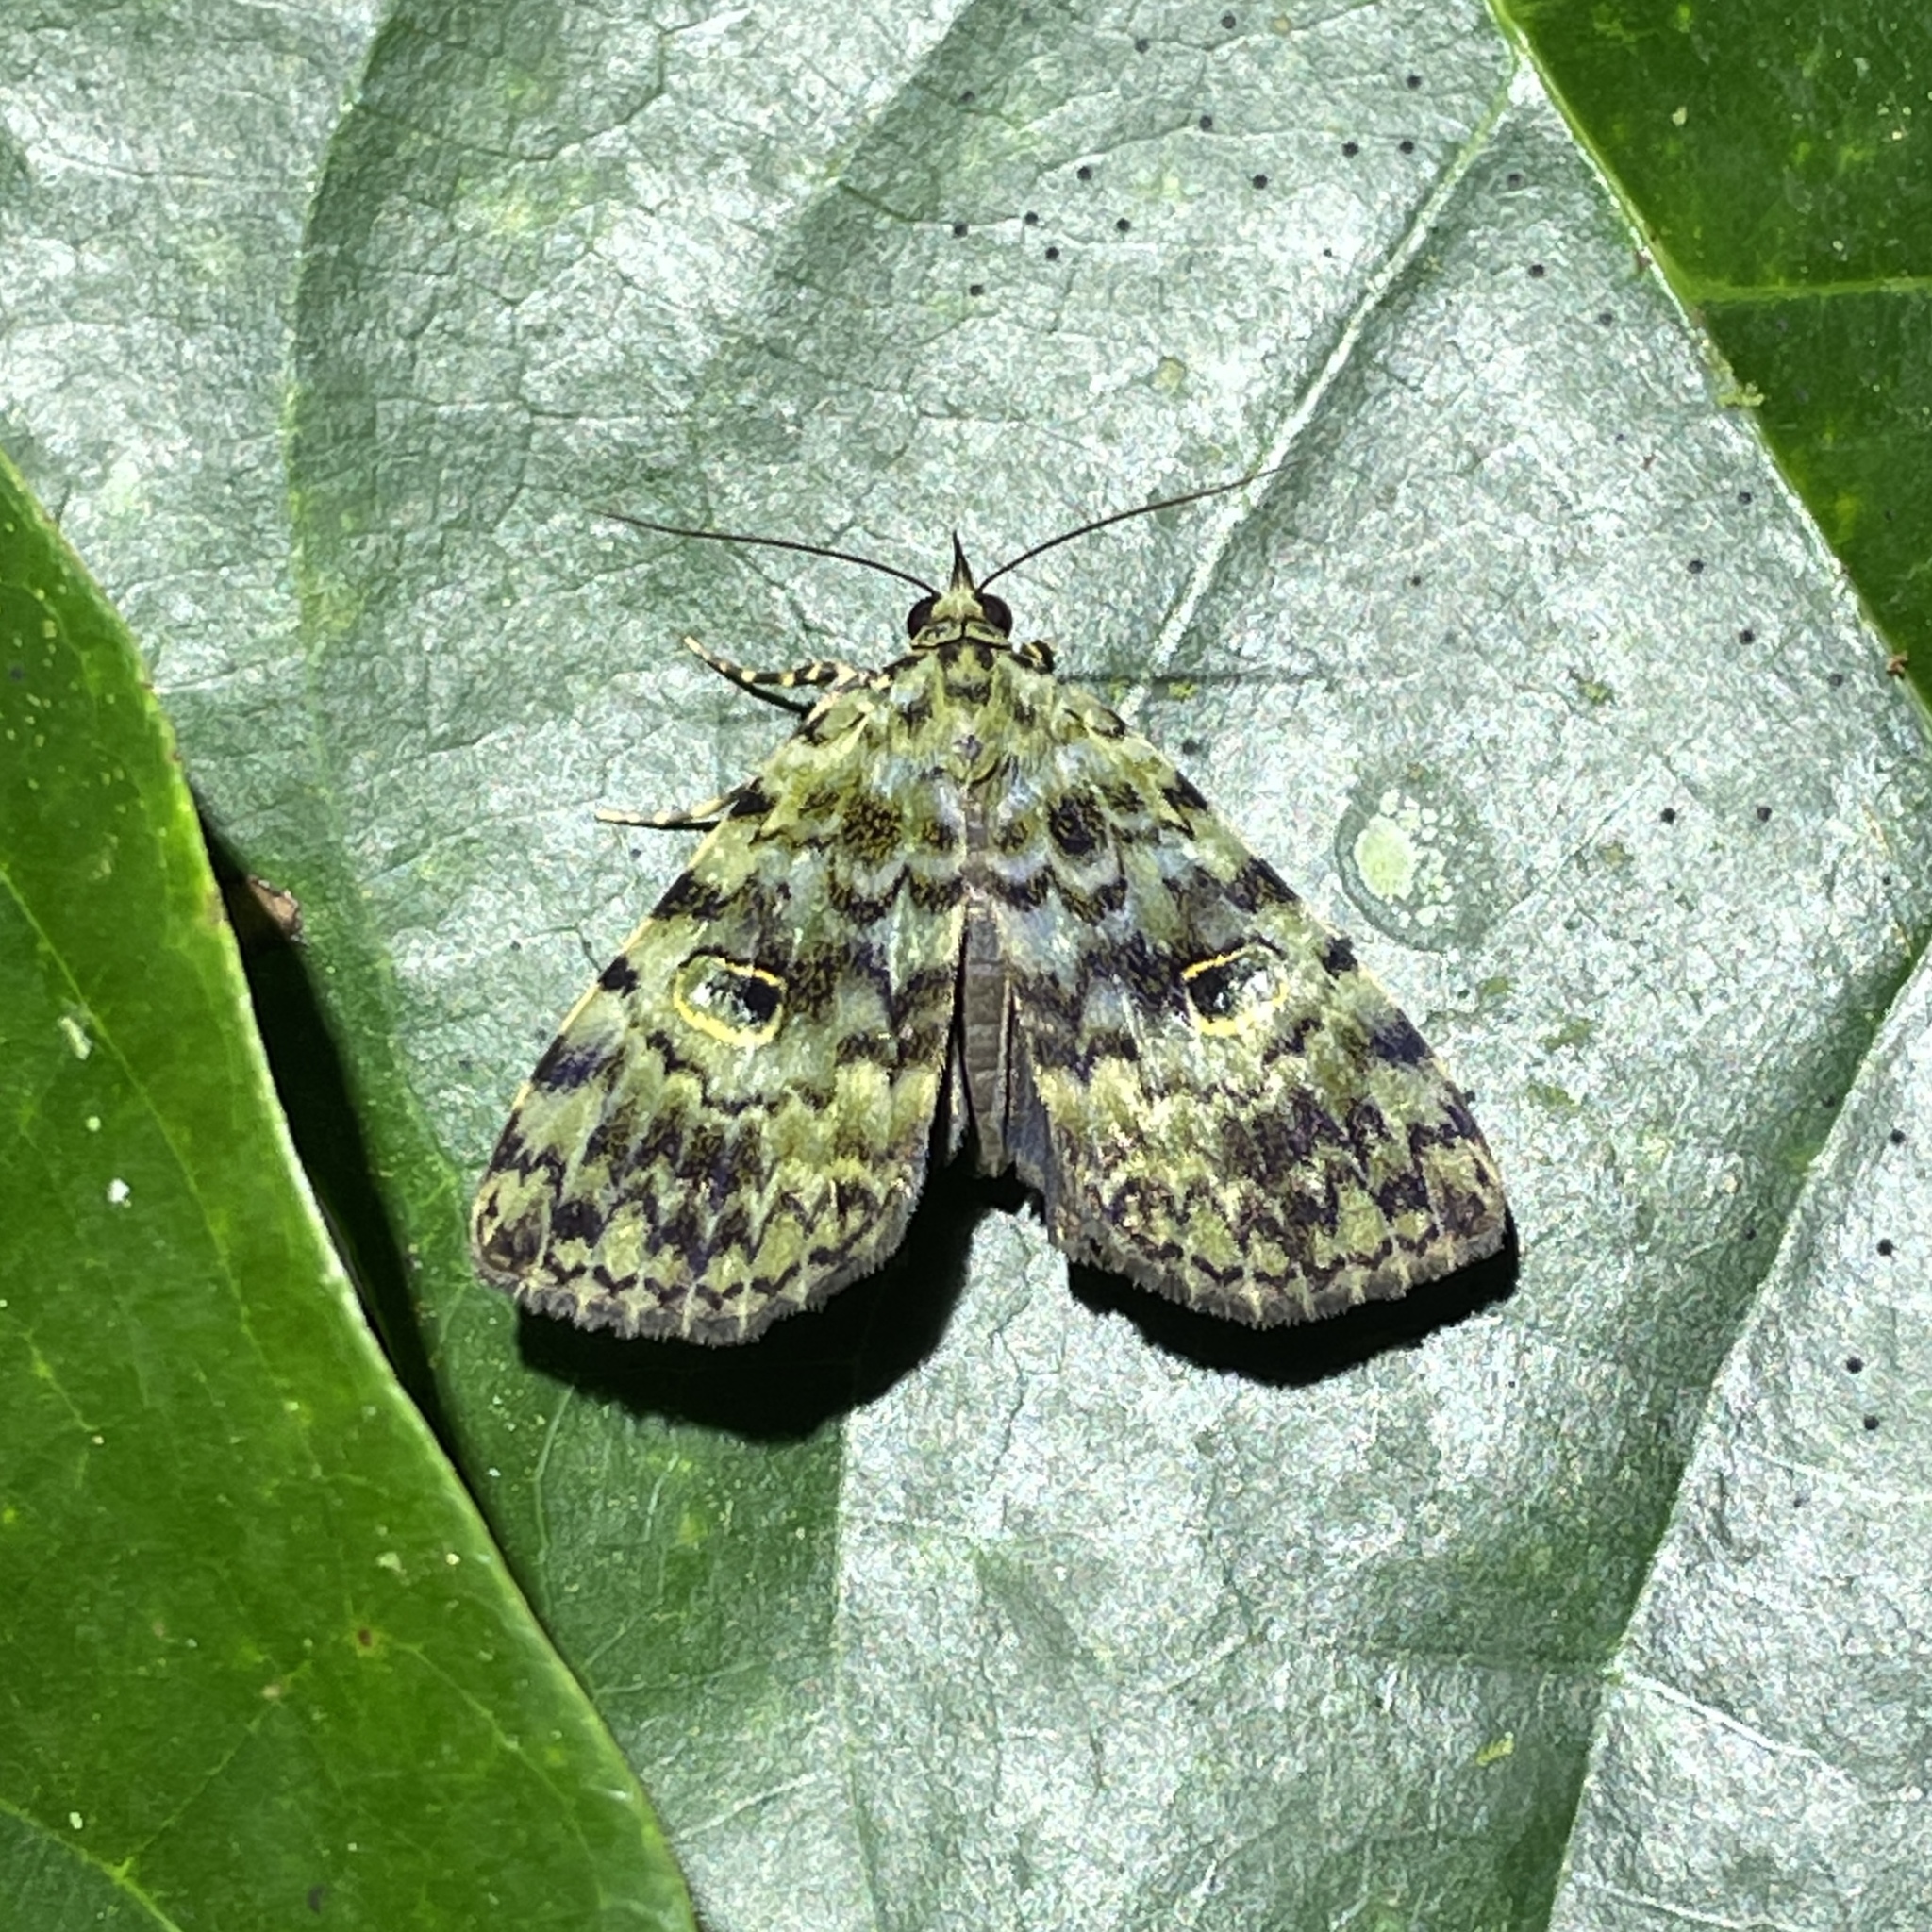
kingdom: Animalia
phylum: Arthropoda
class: Insecta
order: Lepidoptera
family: Erebidae
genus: Glenopteris
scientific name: Glenopteris herbidalis
